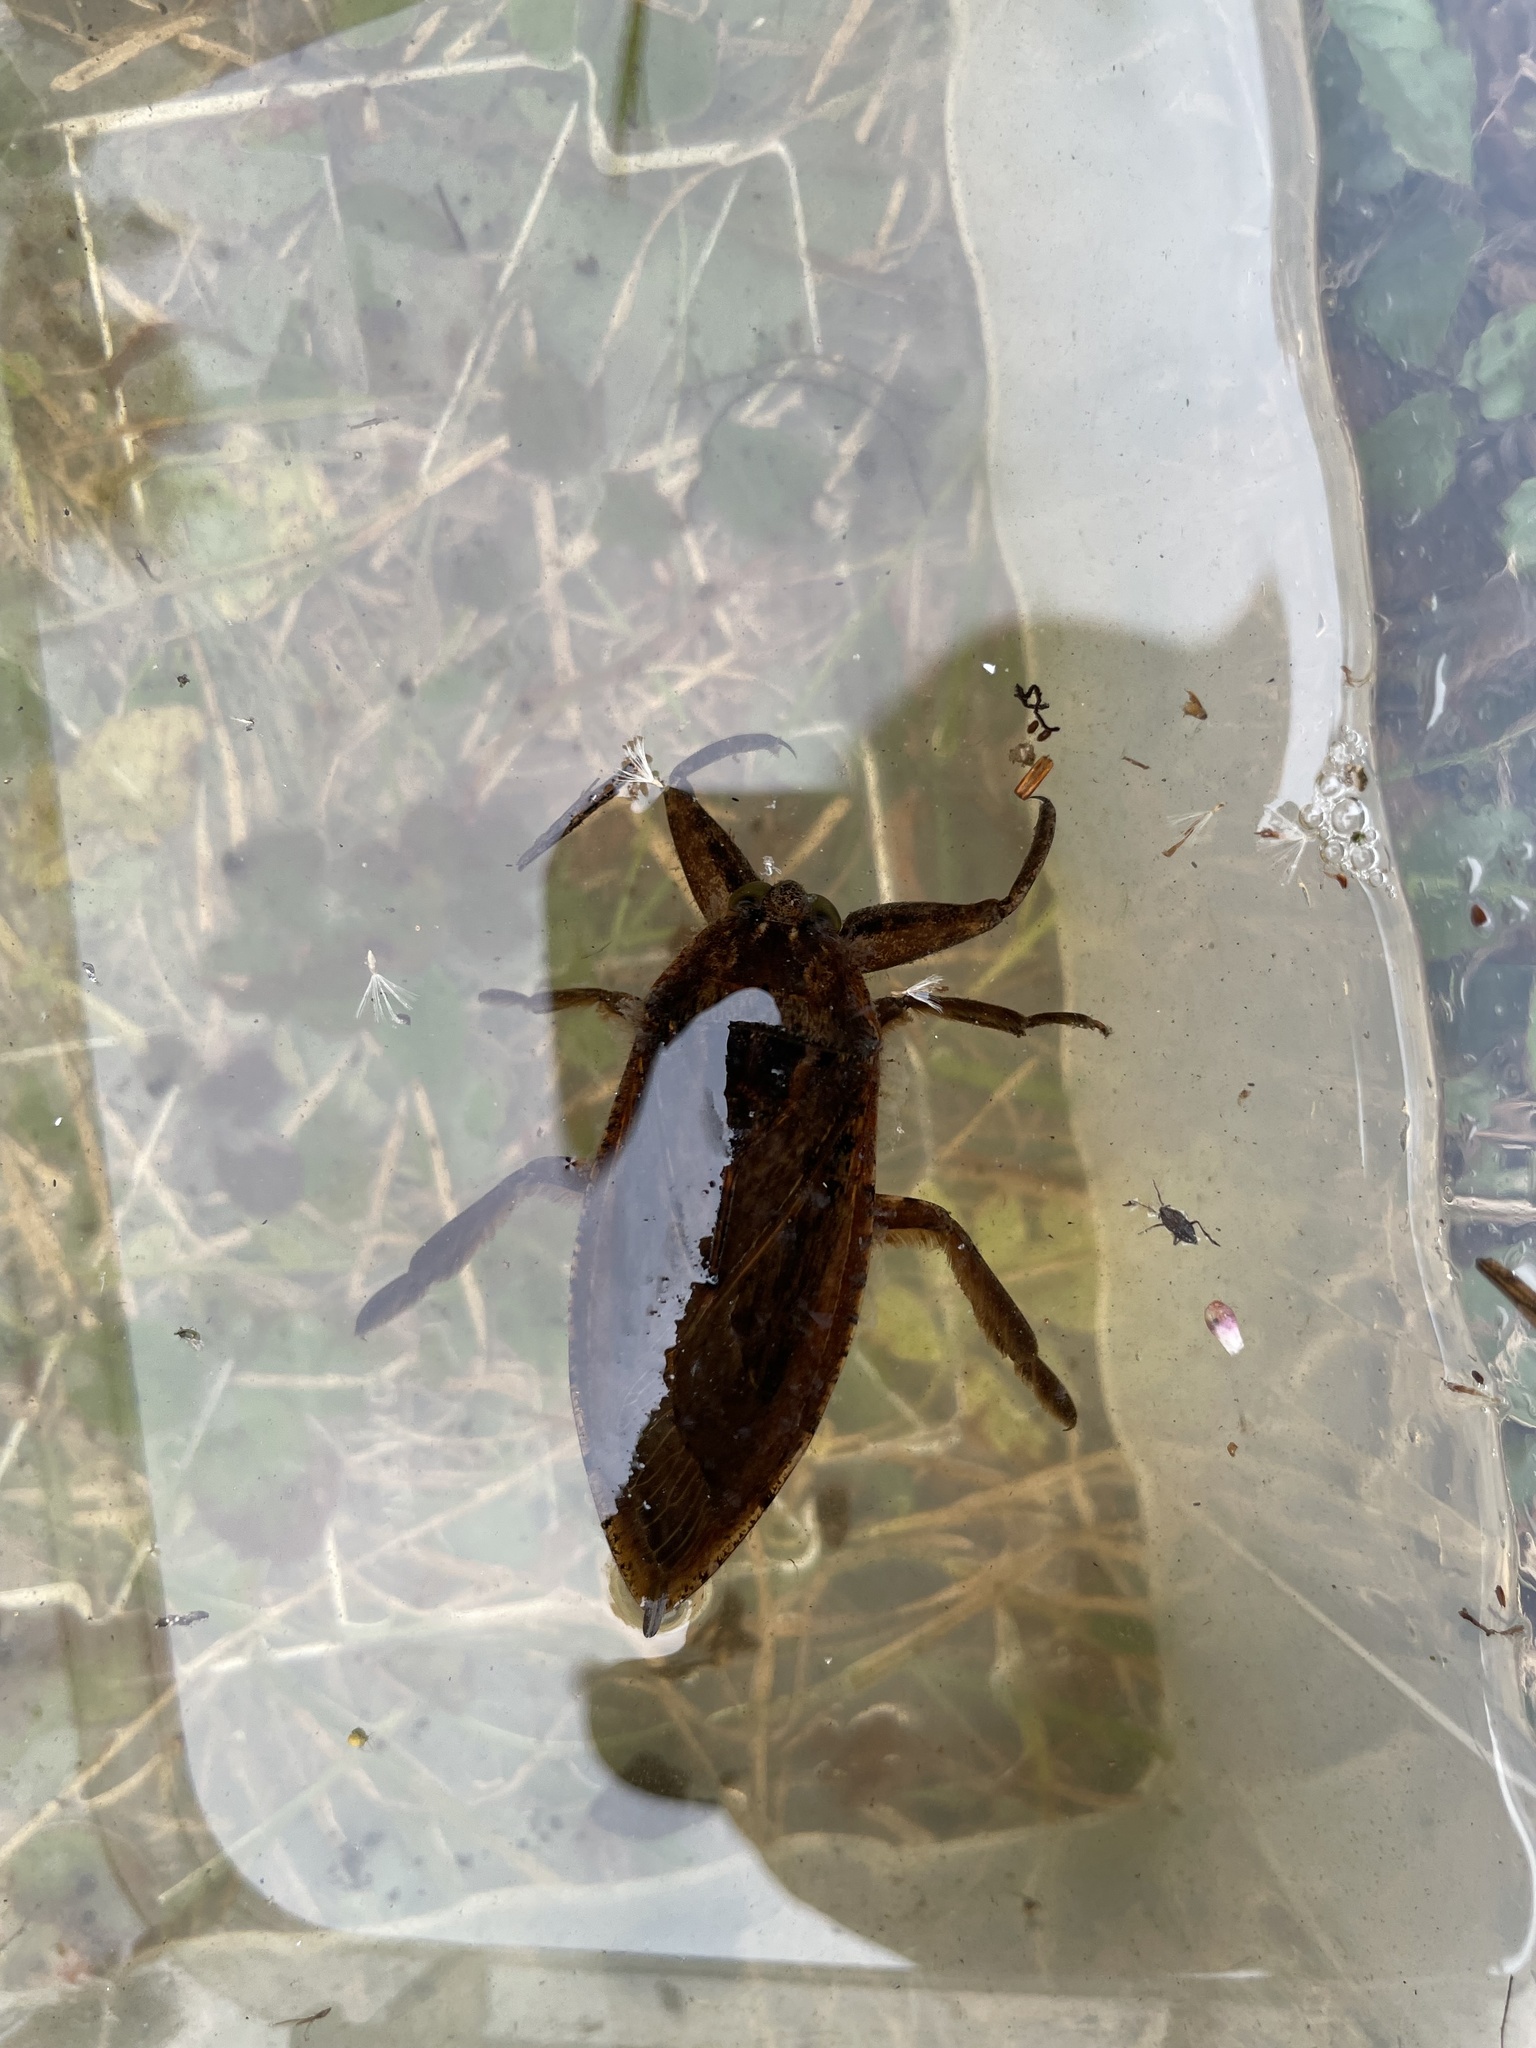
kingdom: Animalia
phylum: Arthropoda
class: Insecta
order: Hemiptera
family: Belostomatidae
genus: Lethocerus
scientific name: Lethocerus americanus
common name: Giant water bug
